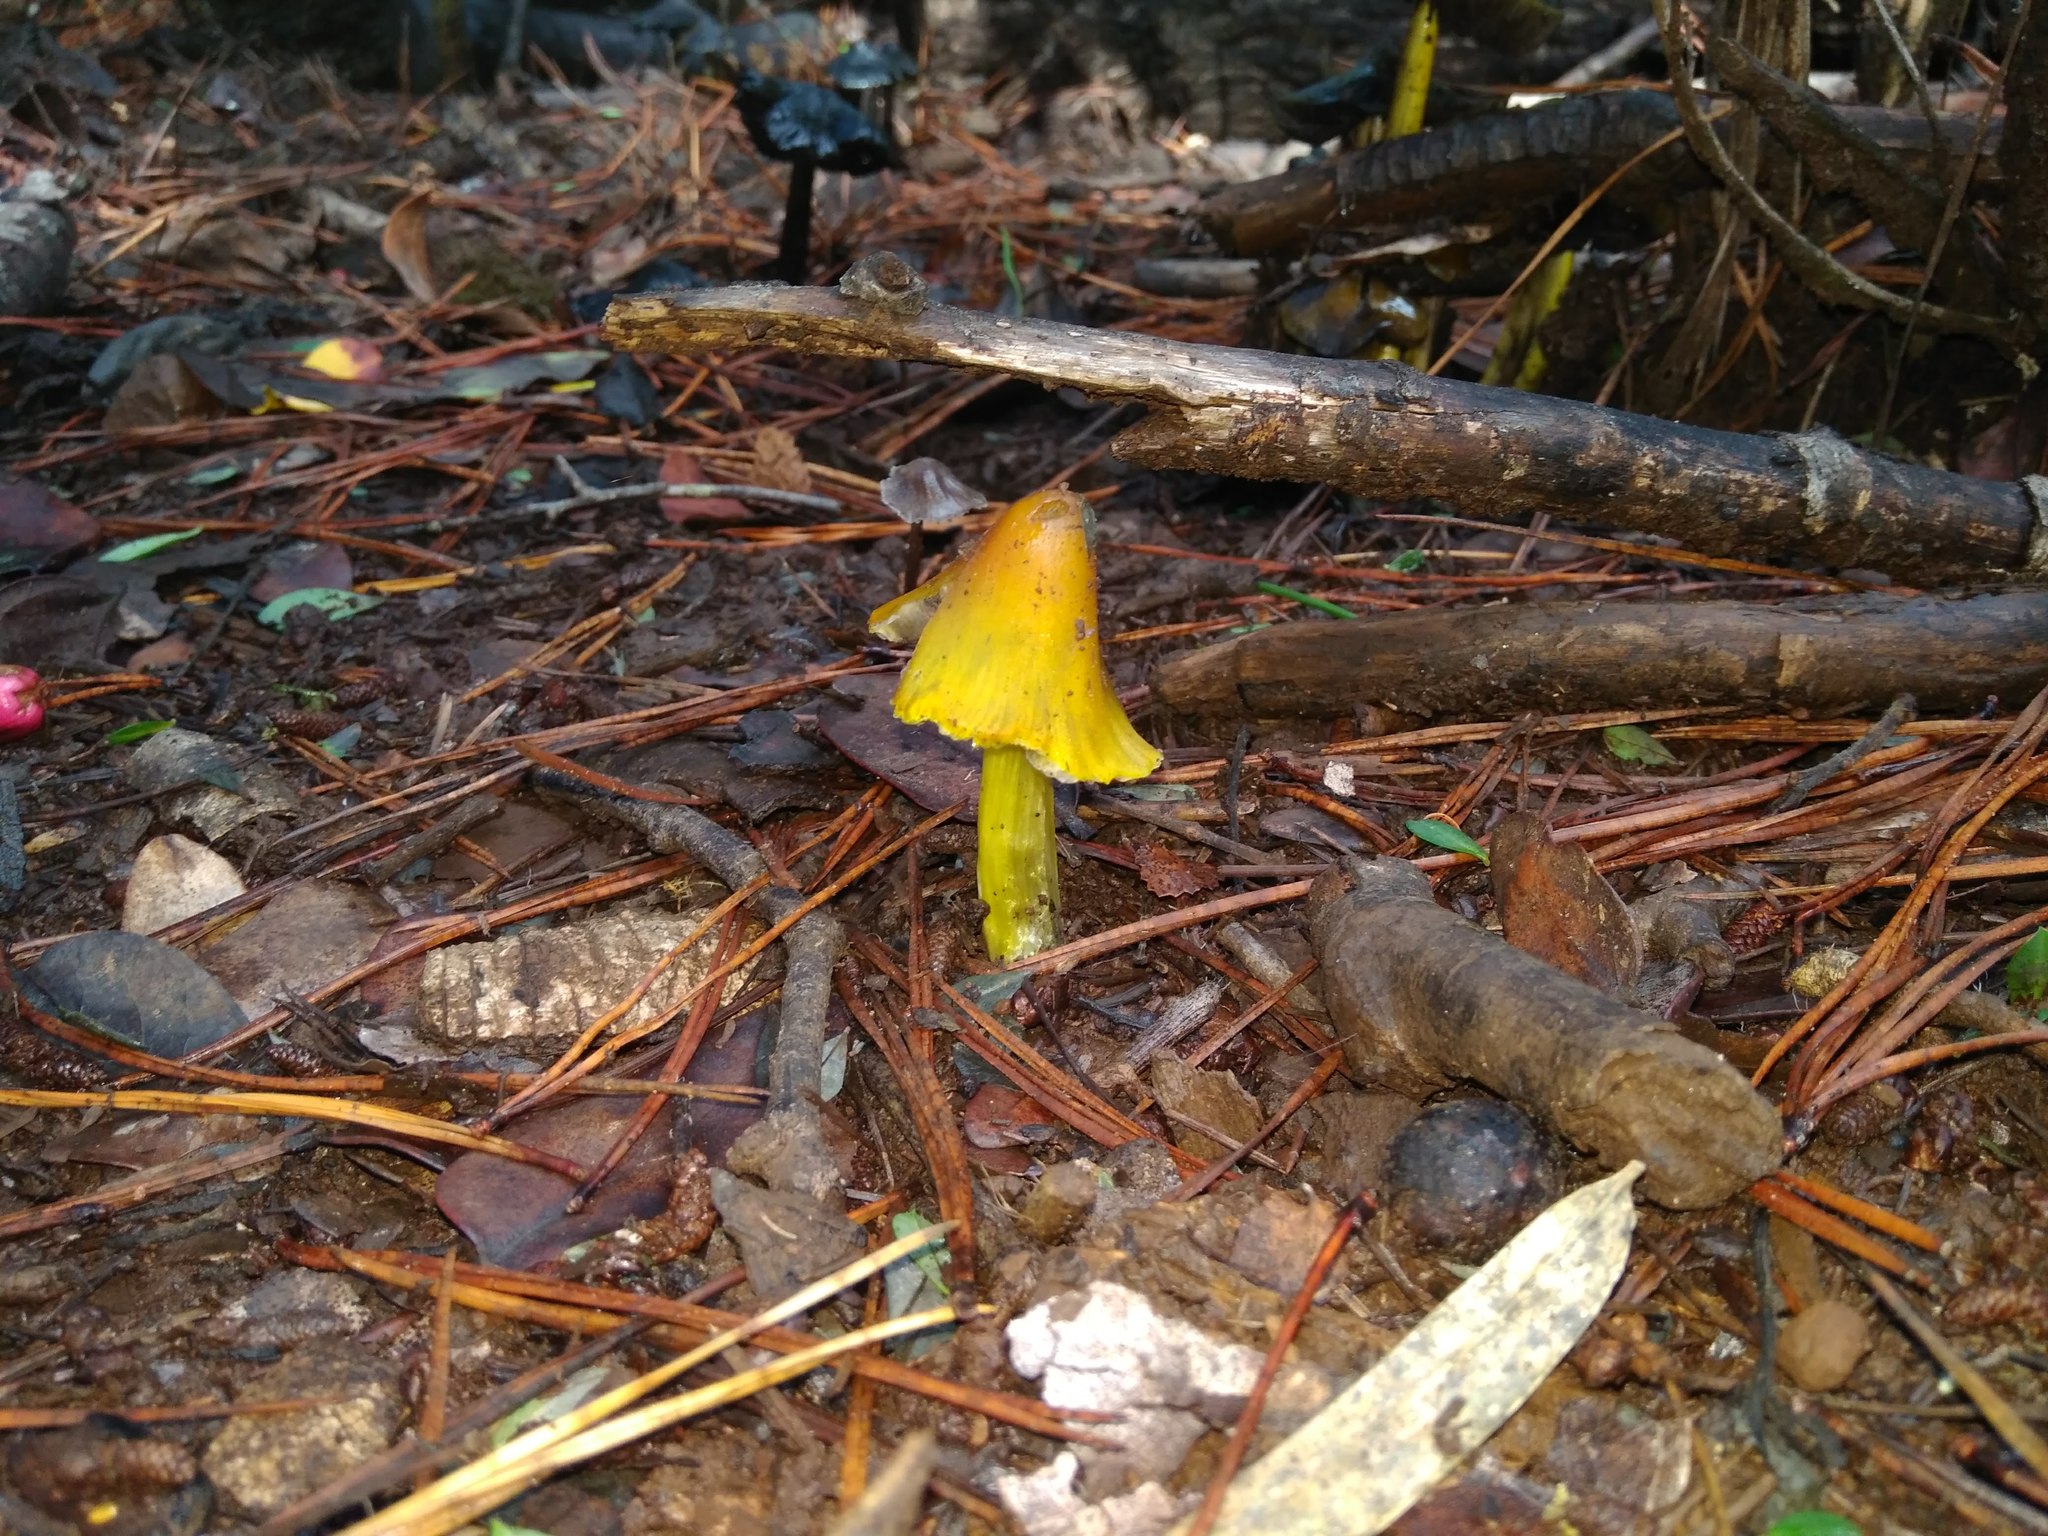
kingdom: Fungi
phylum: Basidiomycota
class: Agaricomycetes
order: Agaricales
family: Hygrophoraceae
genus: Hygrocybe
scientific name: Hygrocybe conica
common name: Blackening wax-cap
